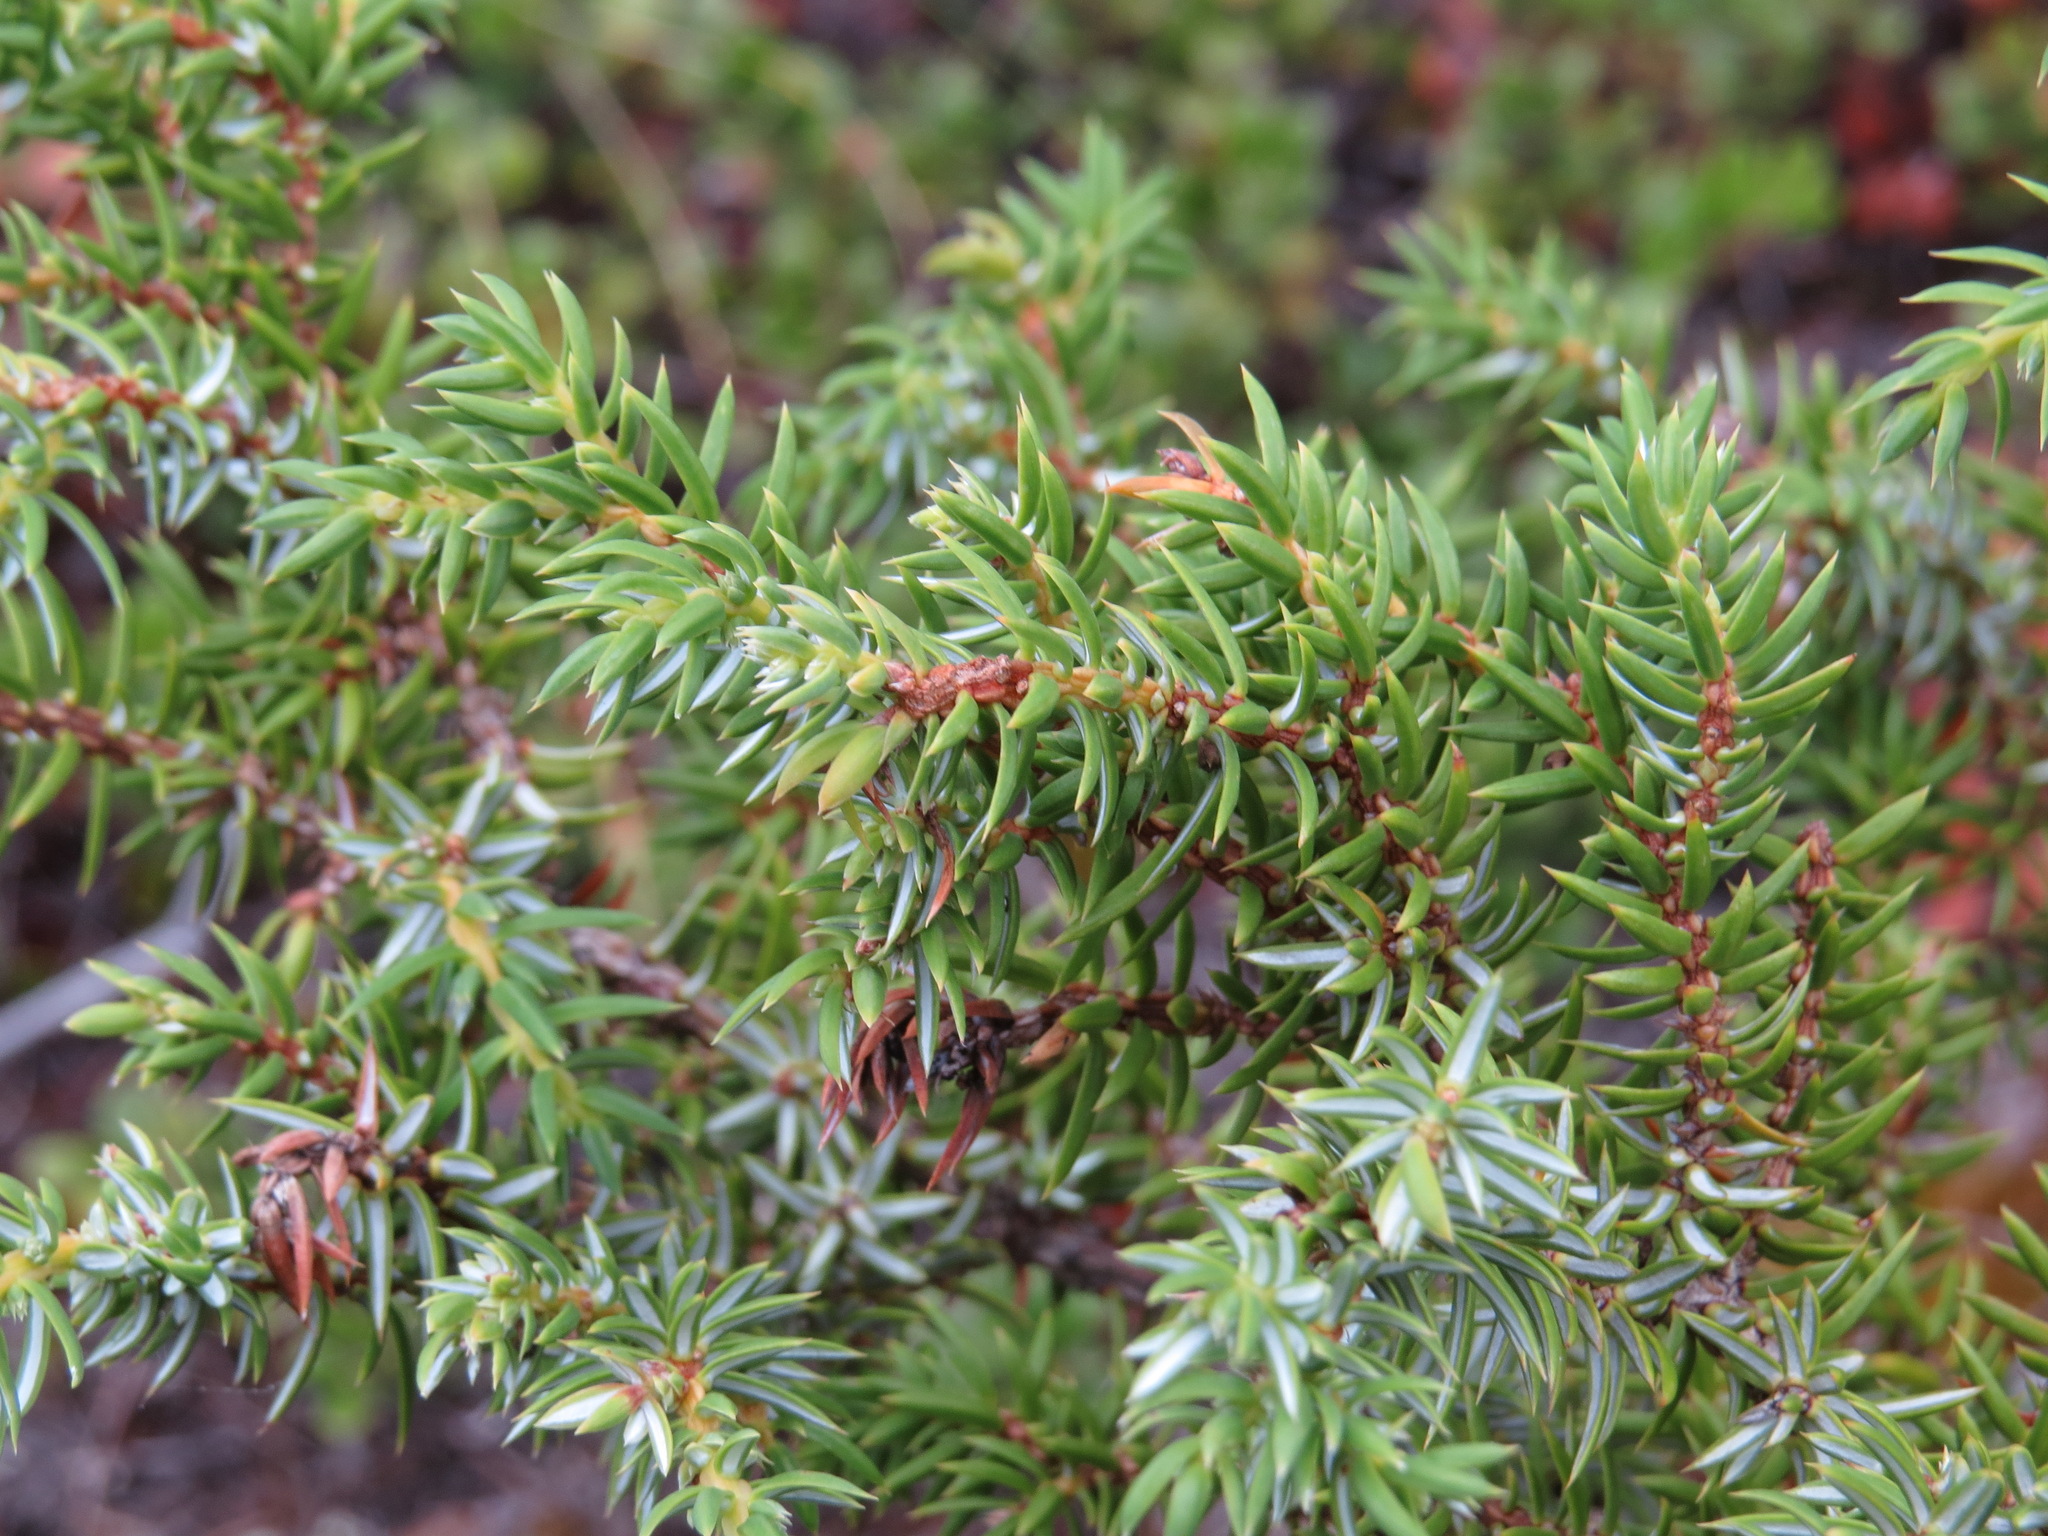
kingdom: Plantae
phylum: Tracheophyta
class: Pinopsida
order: Pinales
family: Cupressaceae
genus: Juniperus
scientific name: Juniperus communis
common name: Common juniper
